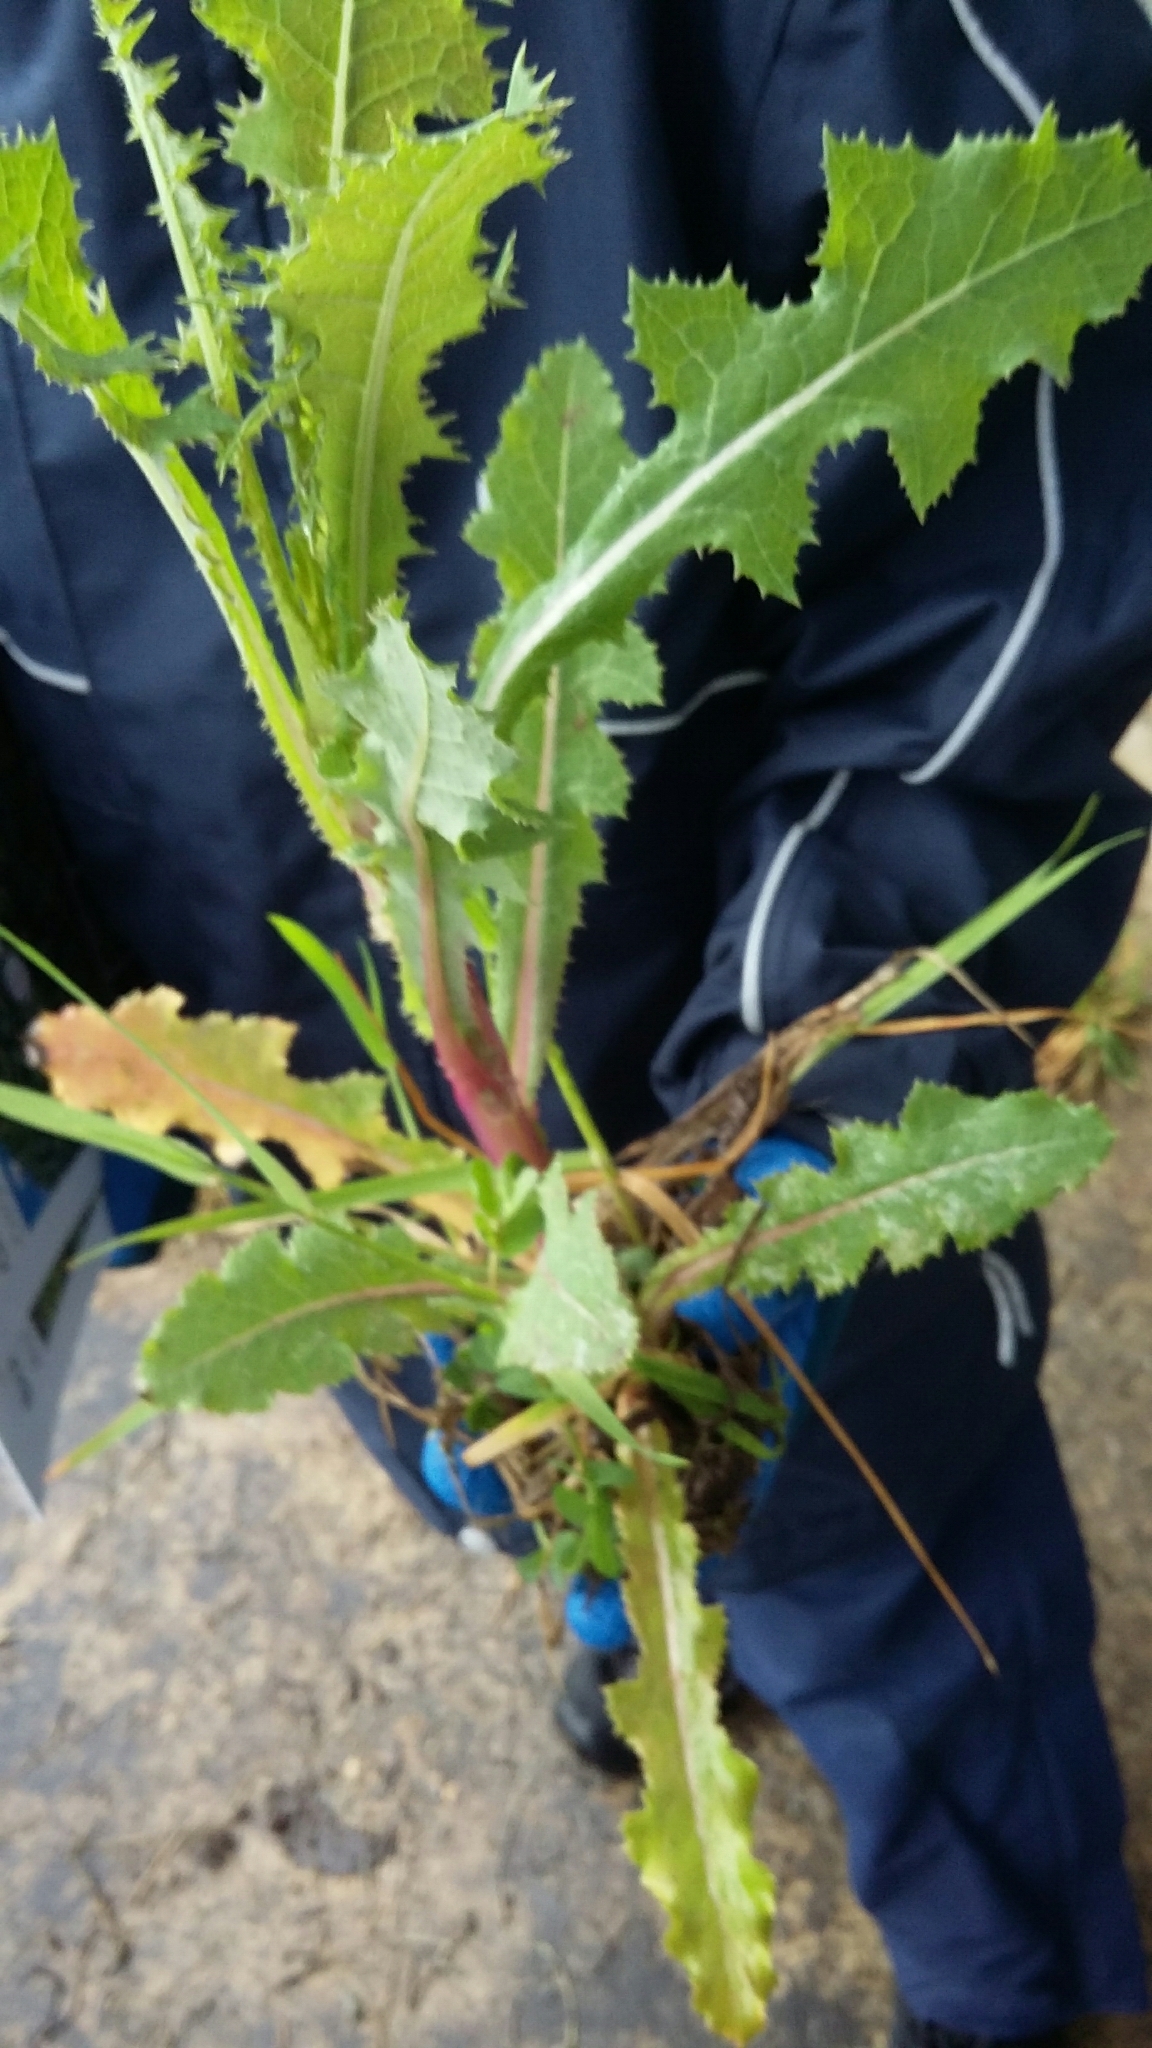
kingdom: Plantae
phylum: Tracheophyta
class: Magnoliopsida
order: Asterales
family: Asteraceae
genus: Sonchus
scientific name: Sonchus oleraceus
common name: Common sowthistle
